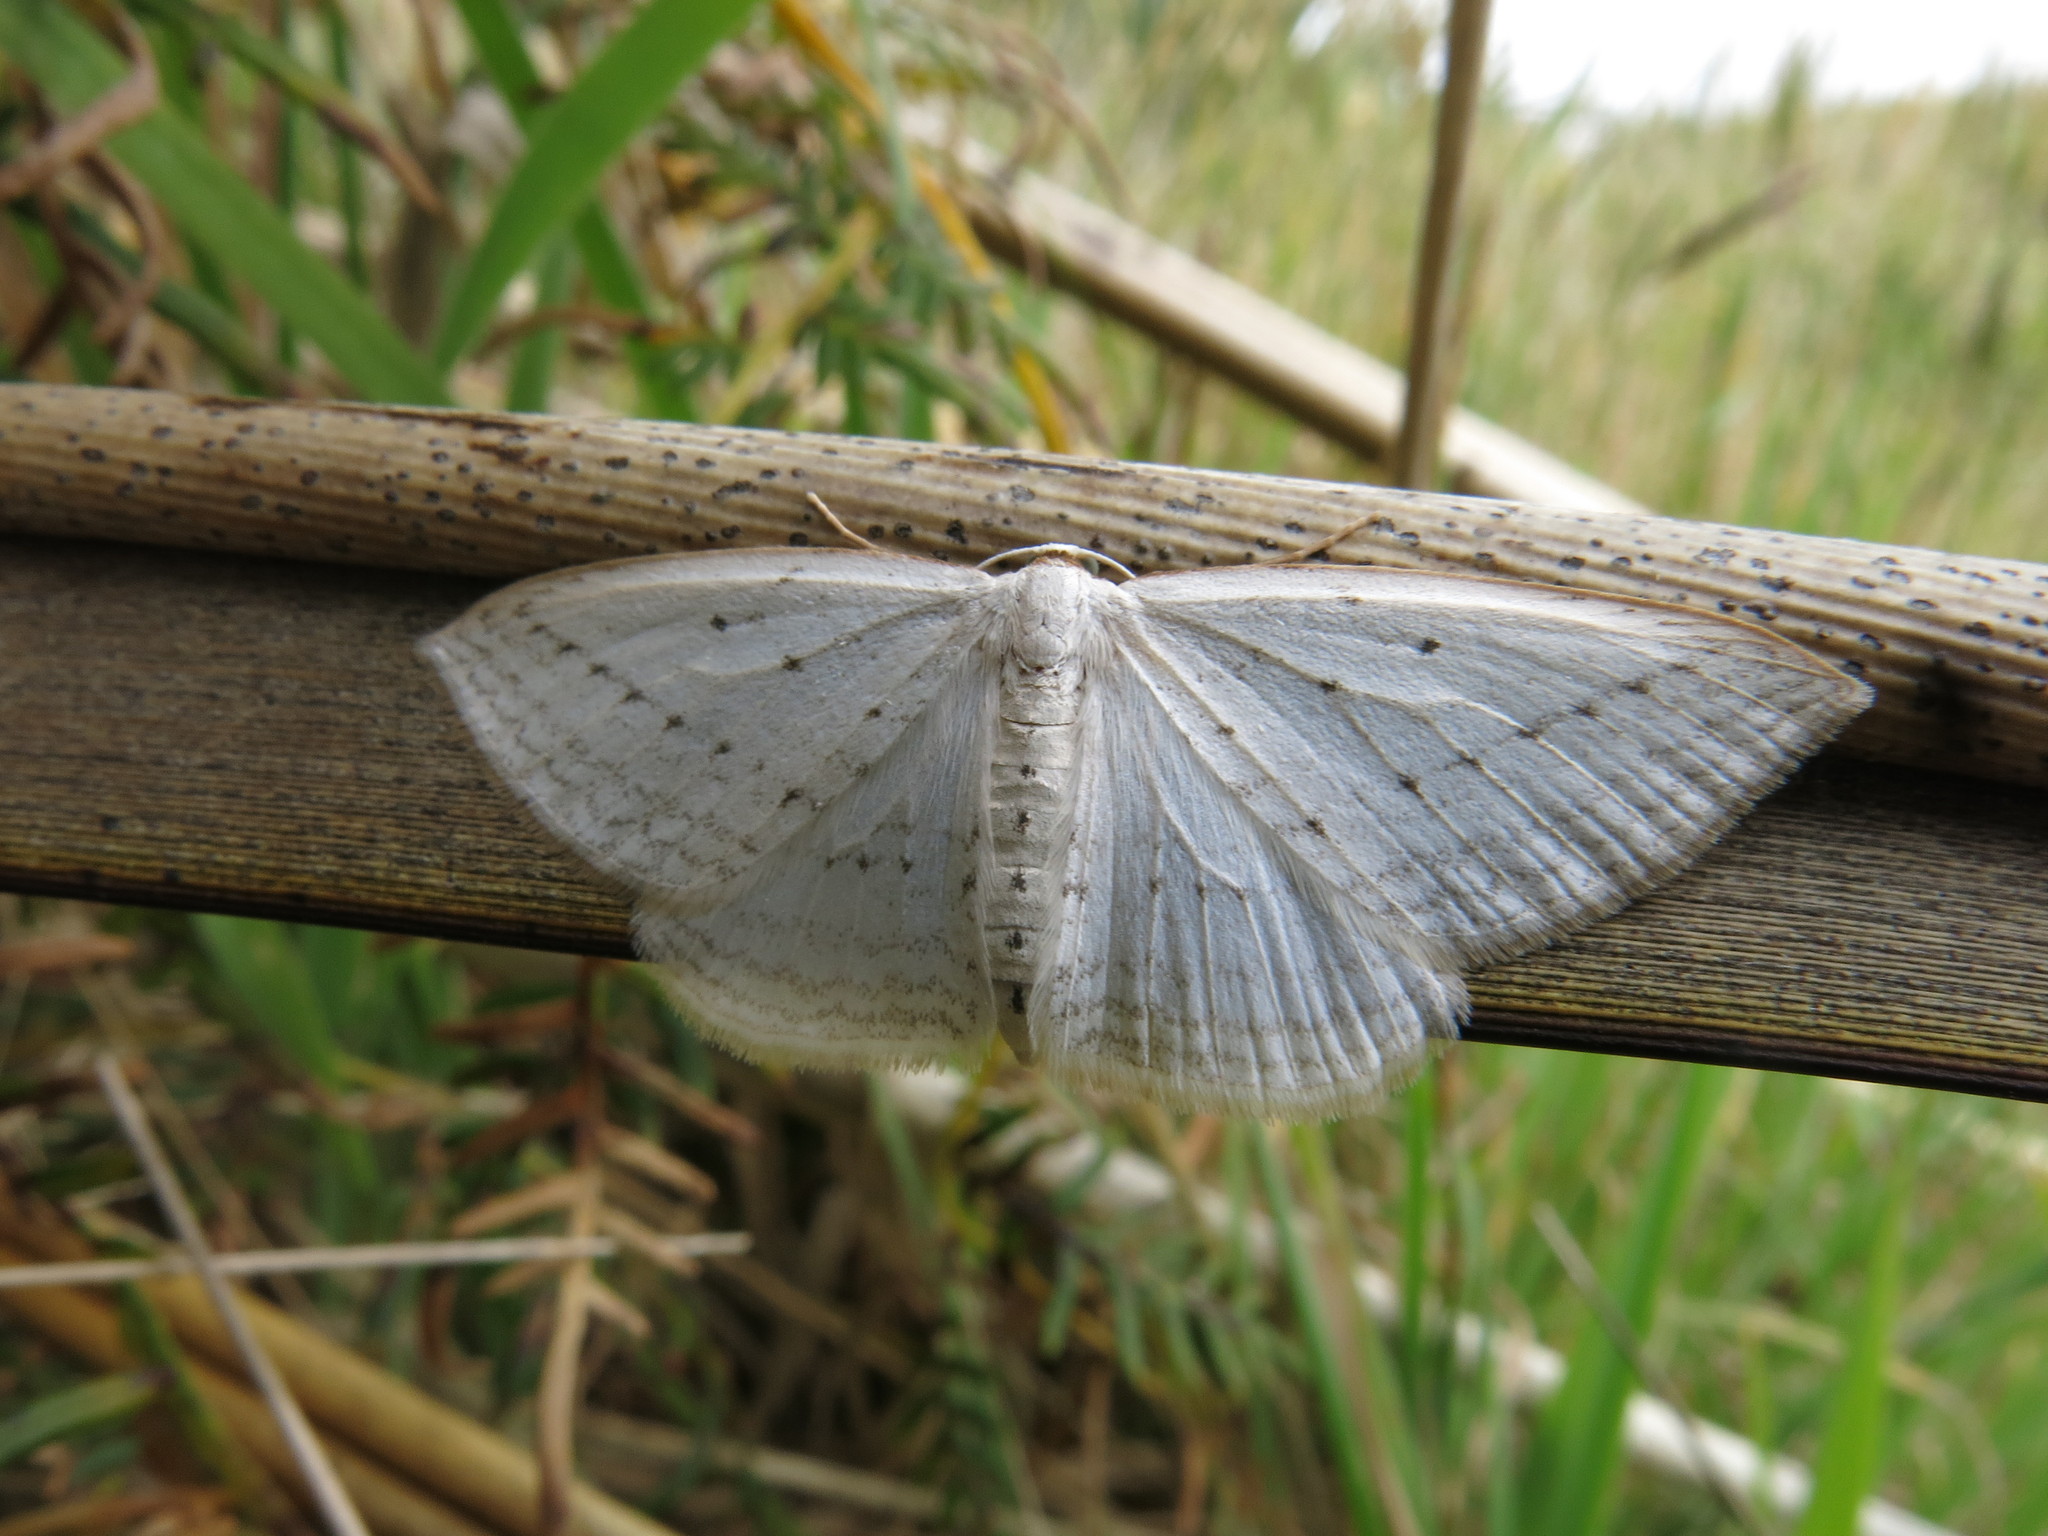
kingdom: Animalia
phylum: Arthropoda
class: Insecta
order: Lepidoptera
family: Geometridae
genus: Orthoclydon
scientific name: Orthoclydon praefectata
